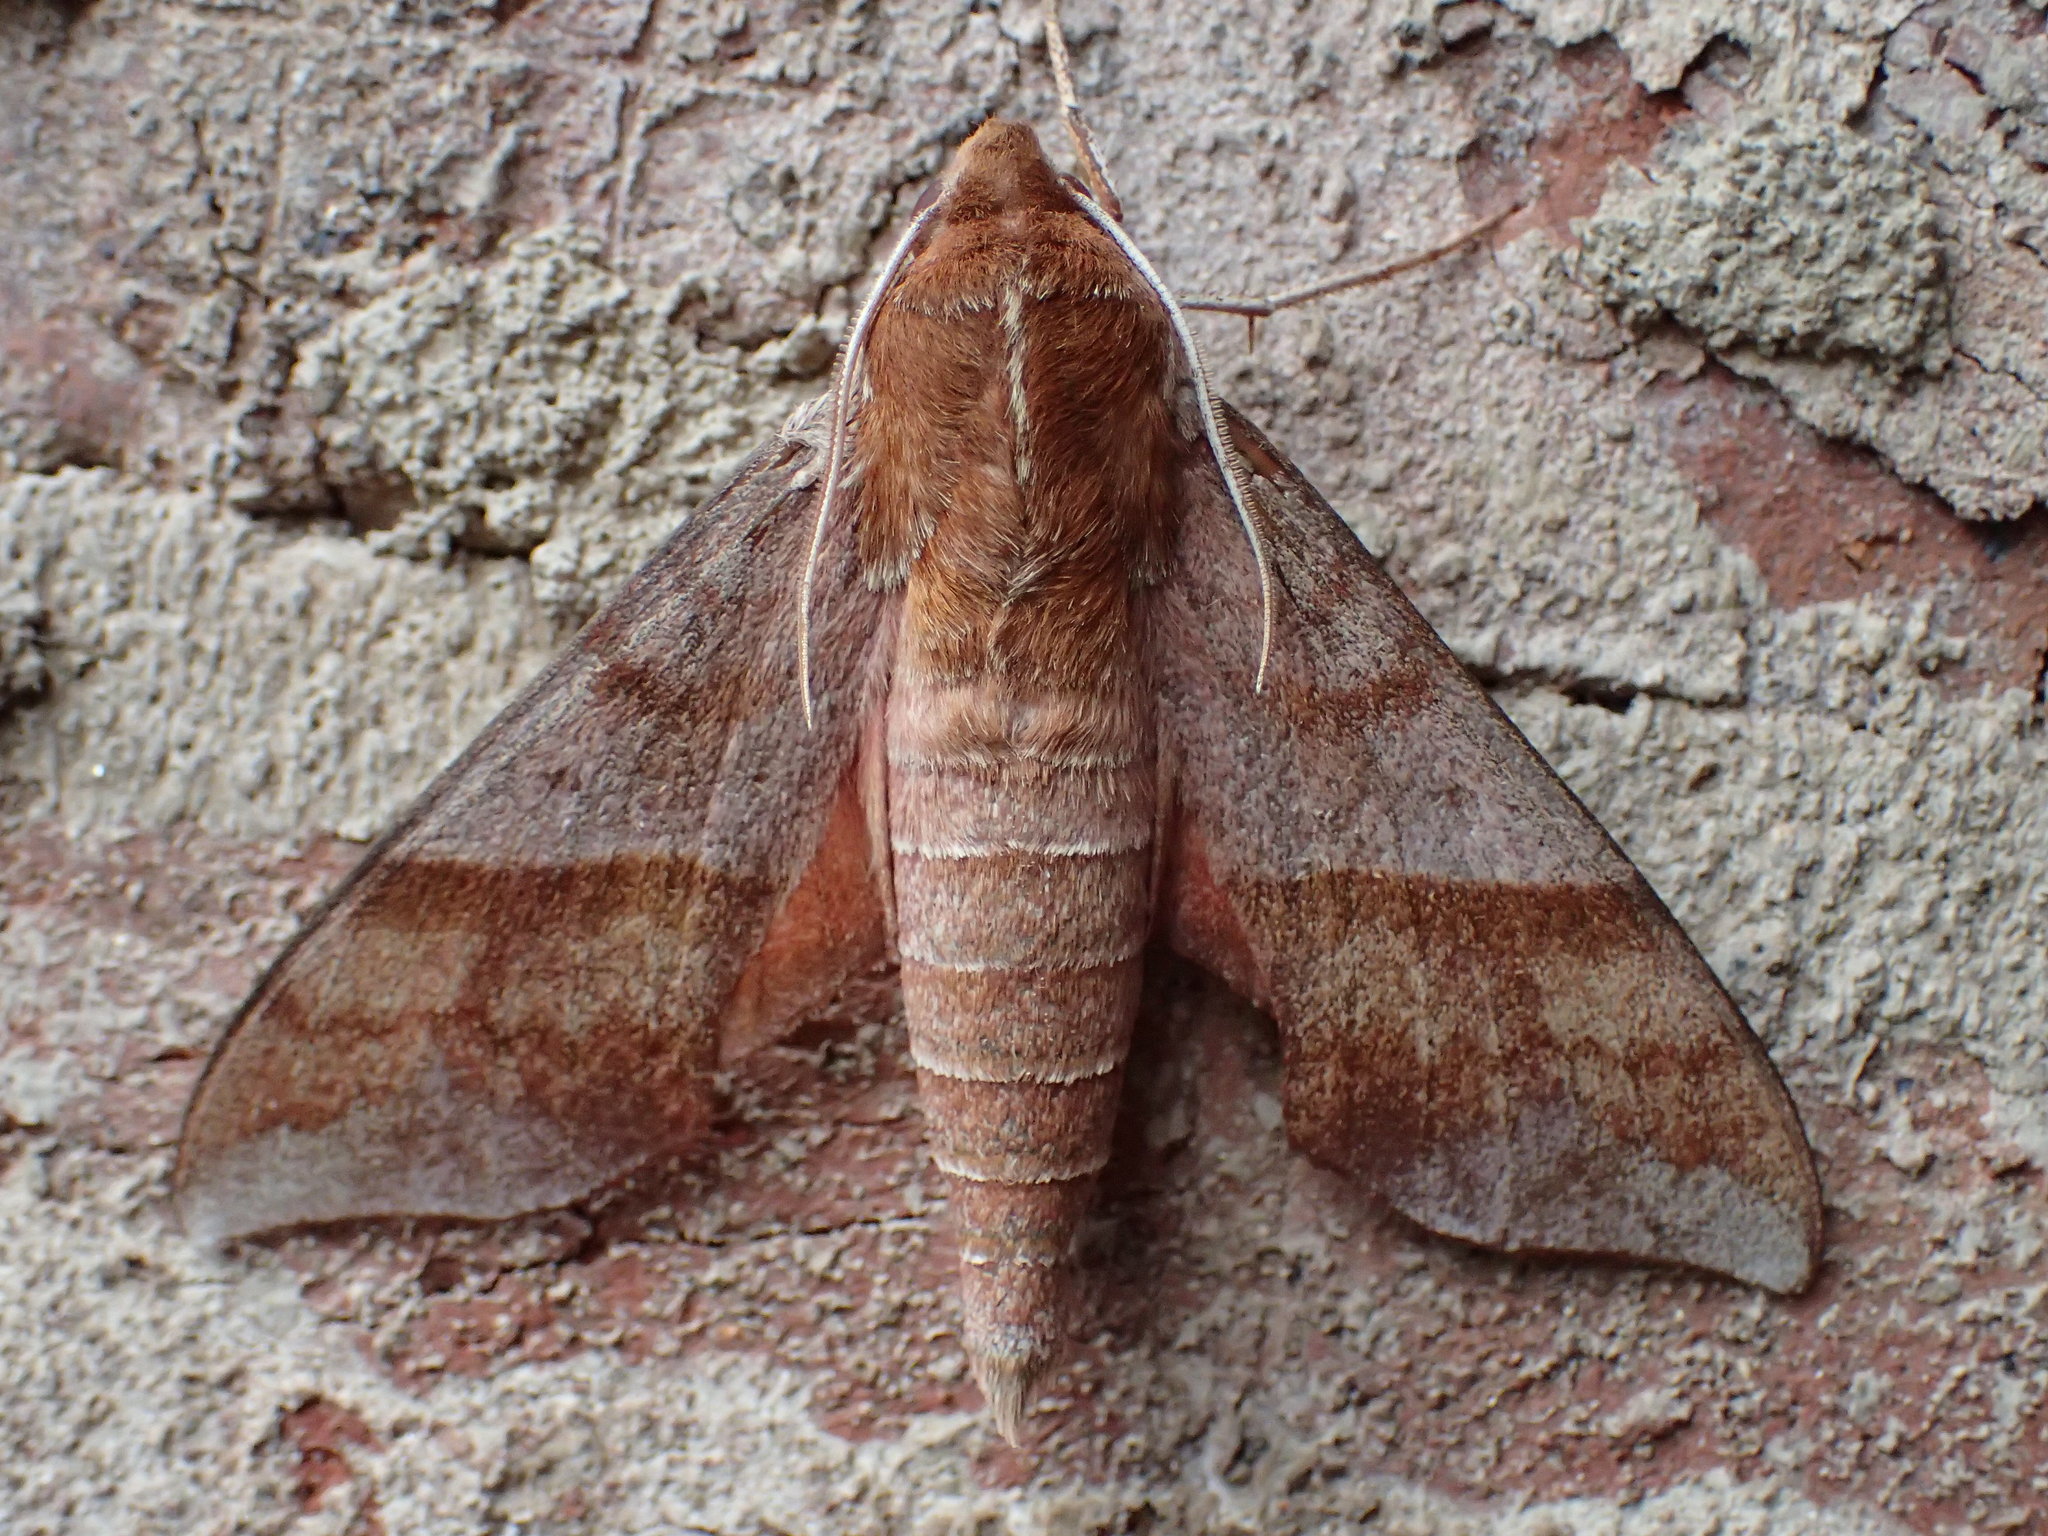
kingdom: Animalia
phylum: Arthropoda
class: Insecta
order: Lepidoptera
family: Sphingidae
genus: Darapsa
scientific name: Darapsa choerilus
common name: Azalea sphinx
